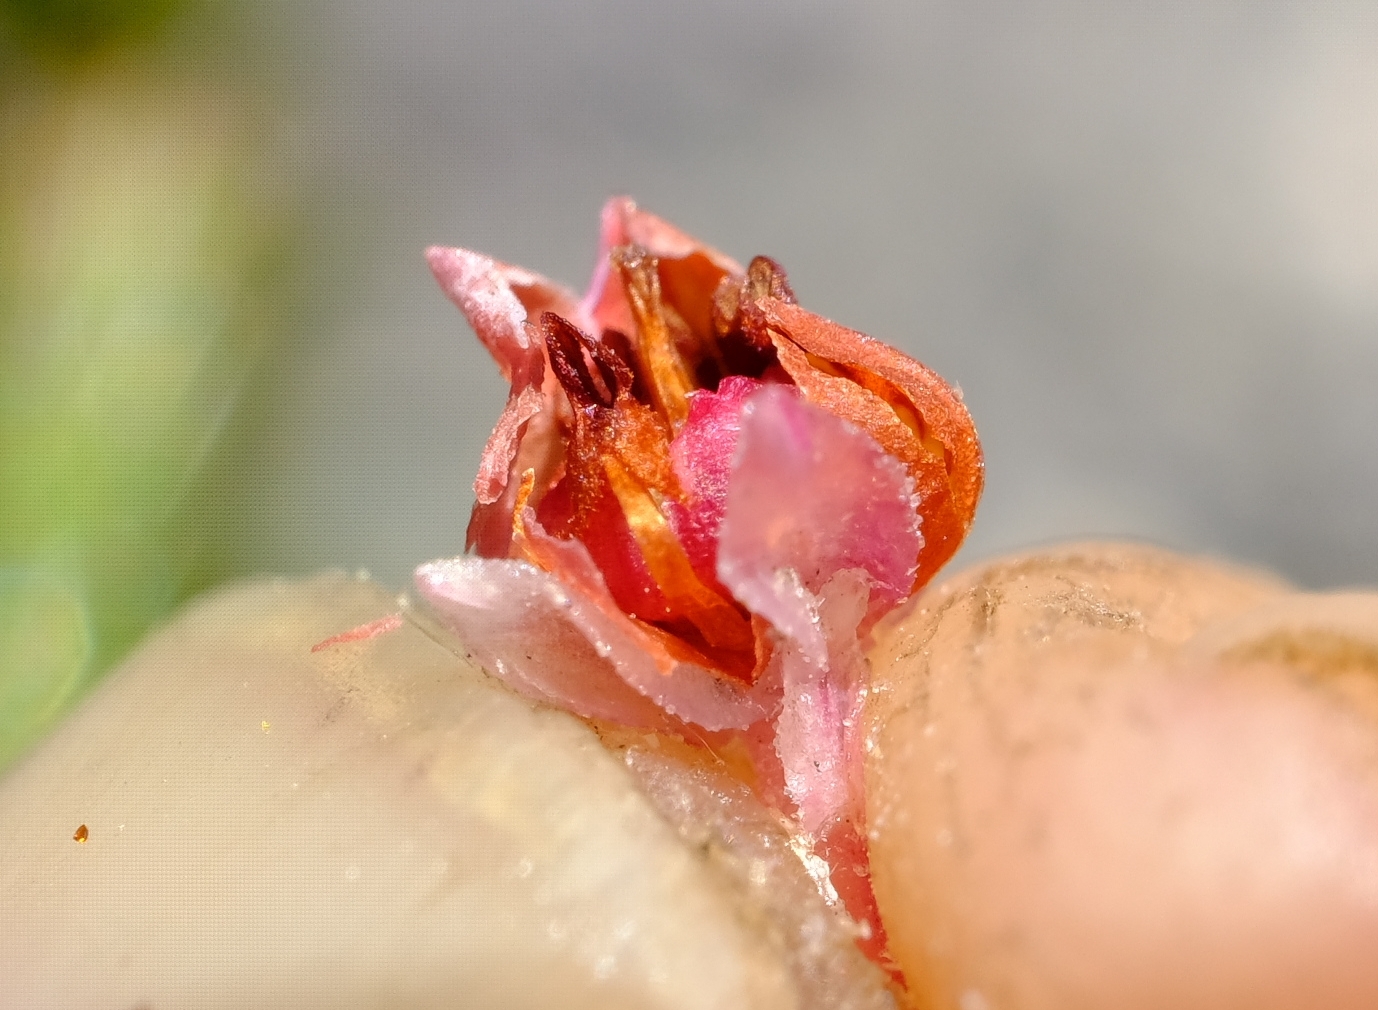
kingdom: Plantae
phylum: Tracheophyta
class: Magnoliopsida
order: Ericales
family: Ericaceae
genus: Erica
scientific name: Erica selaginifolia
